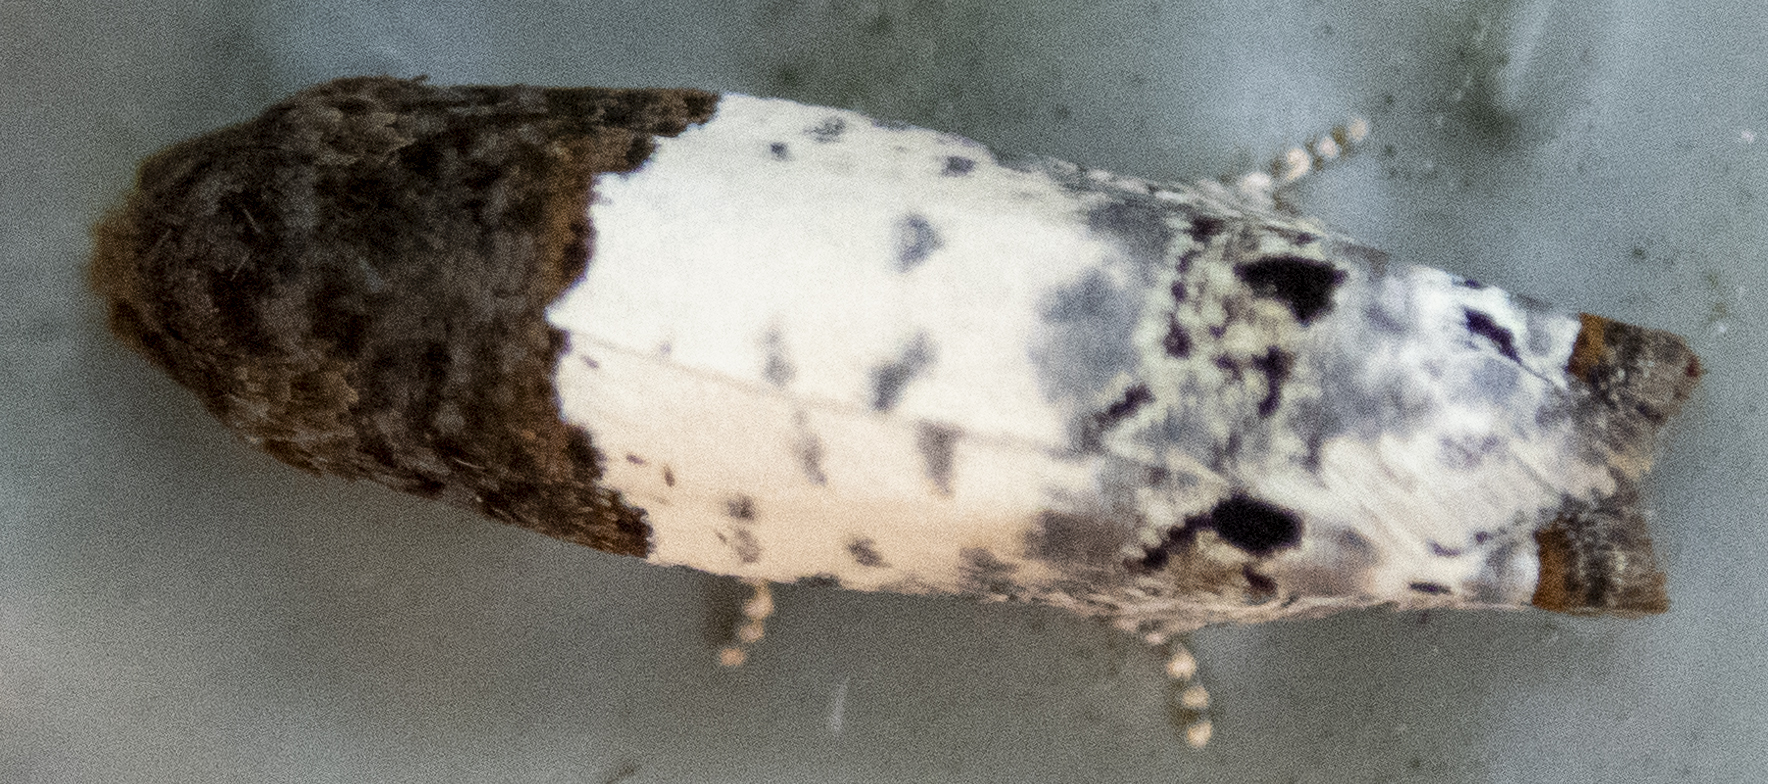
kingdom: Animalia
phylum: Arthropoda
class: Insecta
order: Lepidoptera
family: Tortricidae
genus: Epiblema
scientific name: Epiblema scudderiana
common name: Goldenrod gall moth
